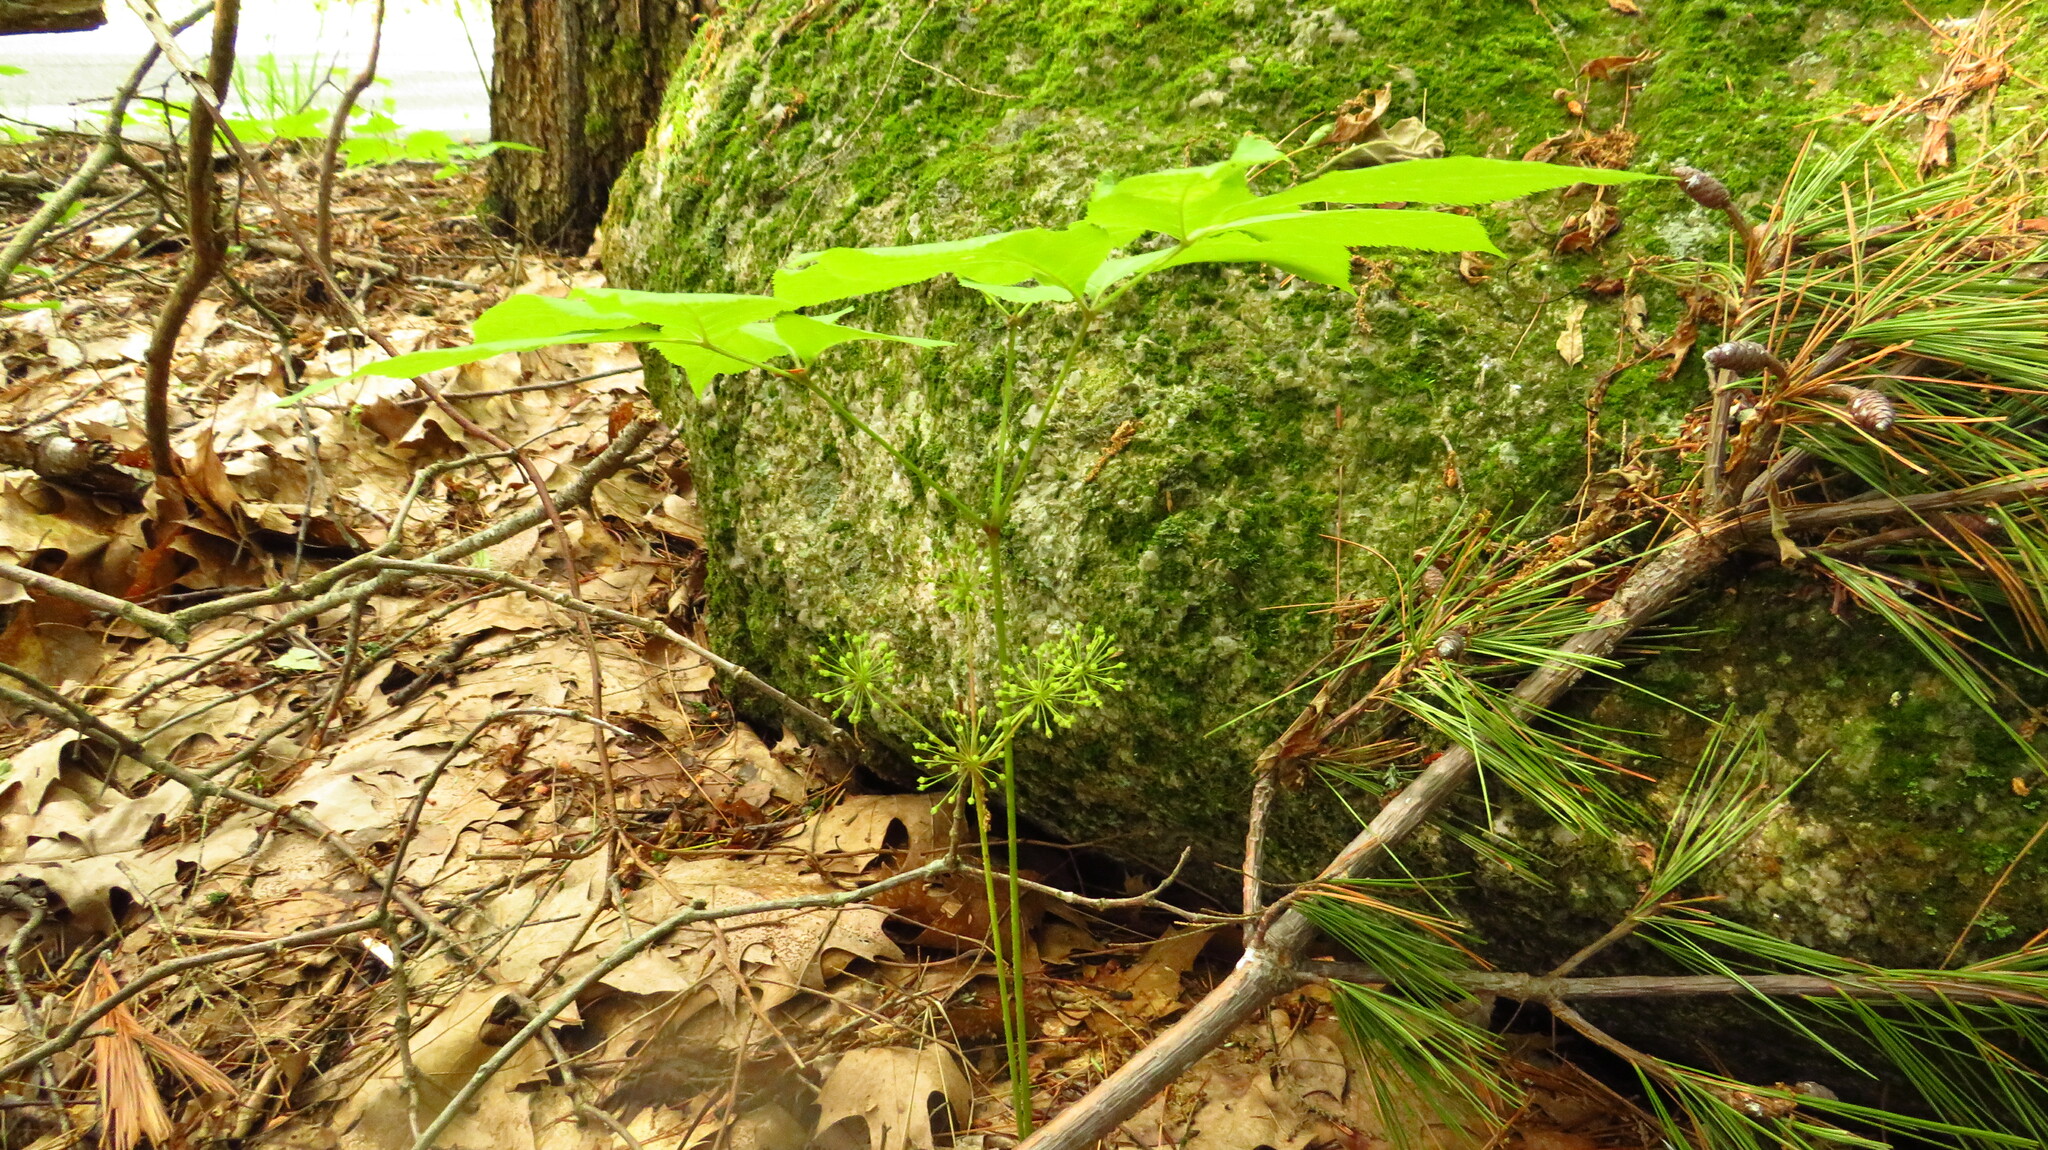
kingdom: Plantae
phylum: Tracheophyta
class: Magnoliopsida
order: Apiales
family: Araliaceae
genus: Aralia
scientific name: Aralia nudicaulis
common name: Wild sarsaparilla
